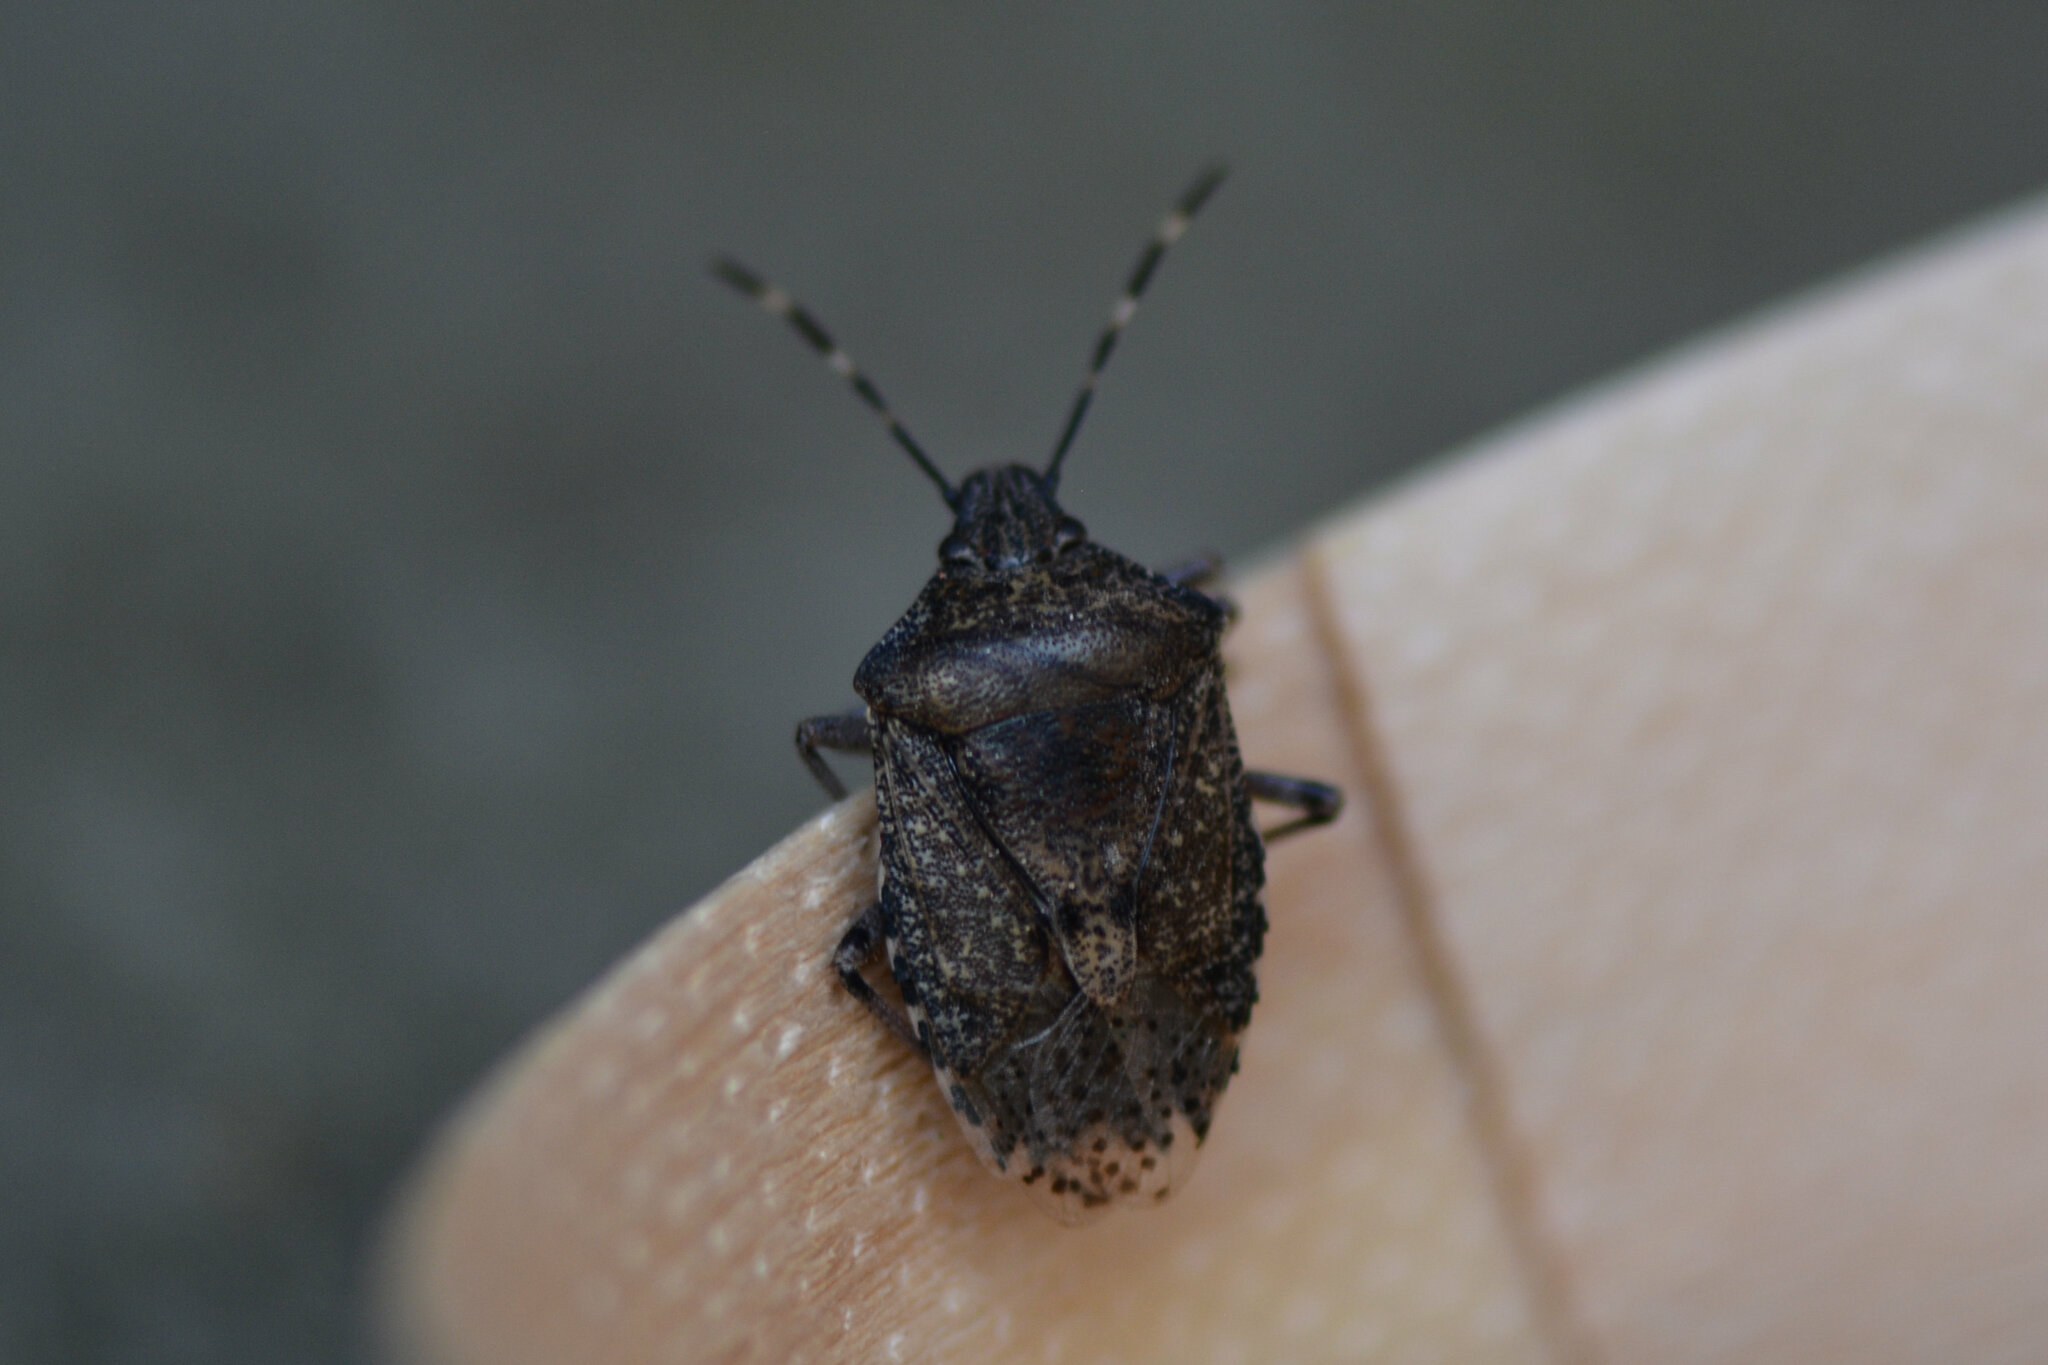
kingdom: Animalia
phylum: Arthropoda
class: Insecta
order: Hemiptera
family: Pentatomidae
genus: Rhaphigaster
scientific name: Rhaphigaster nebulosa
